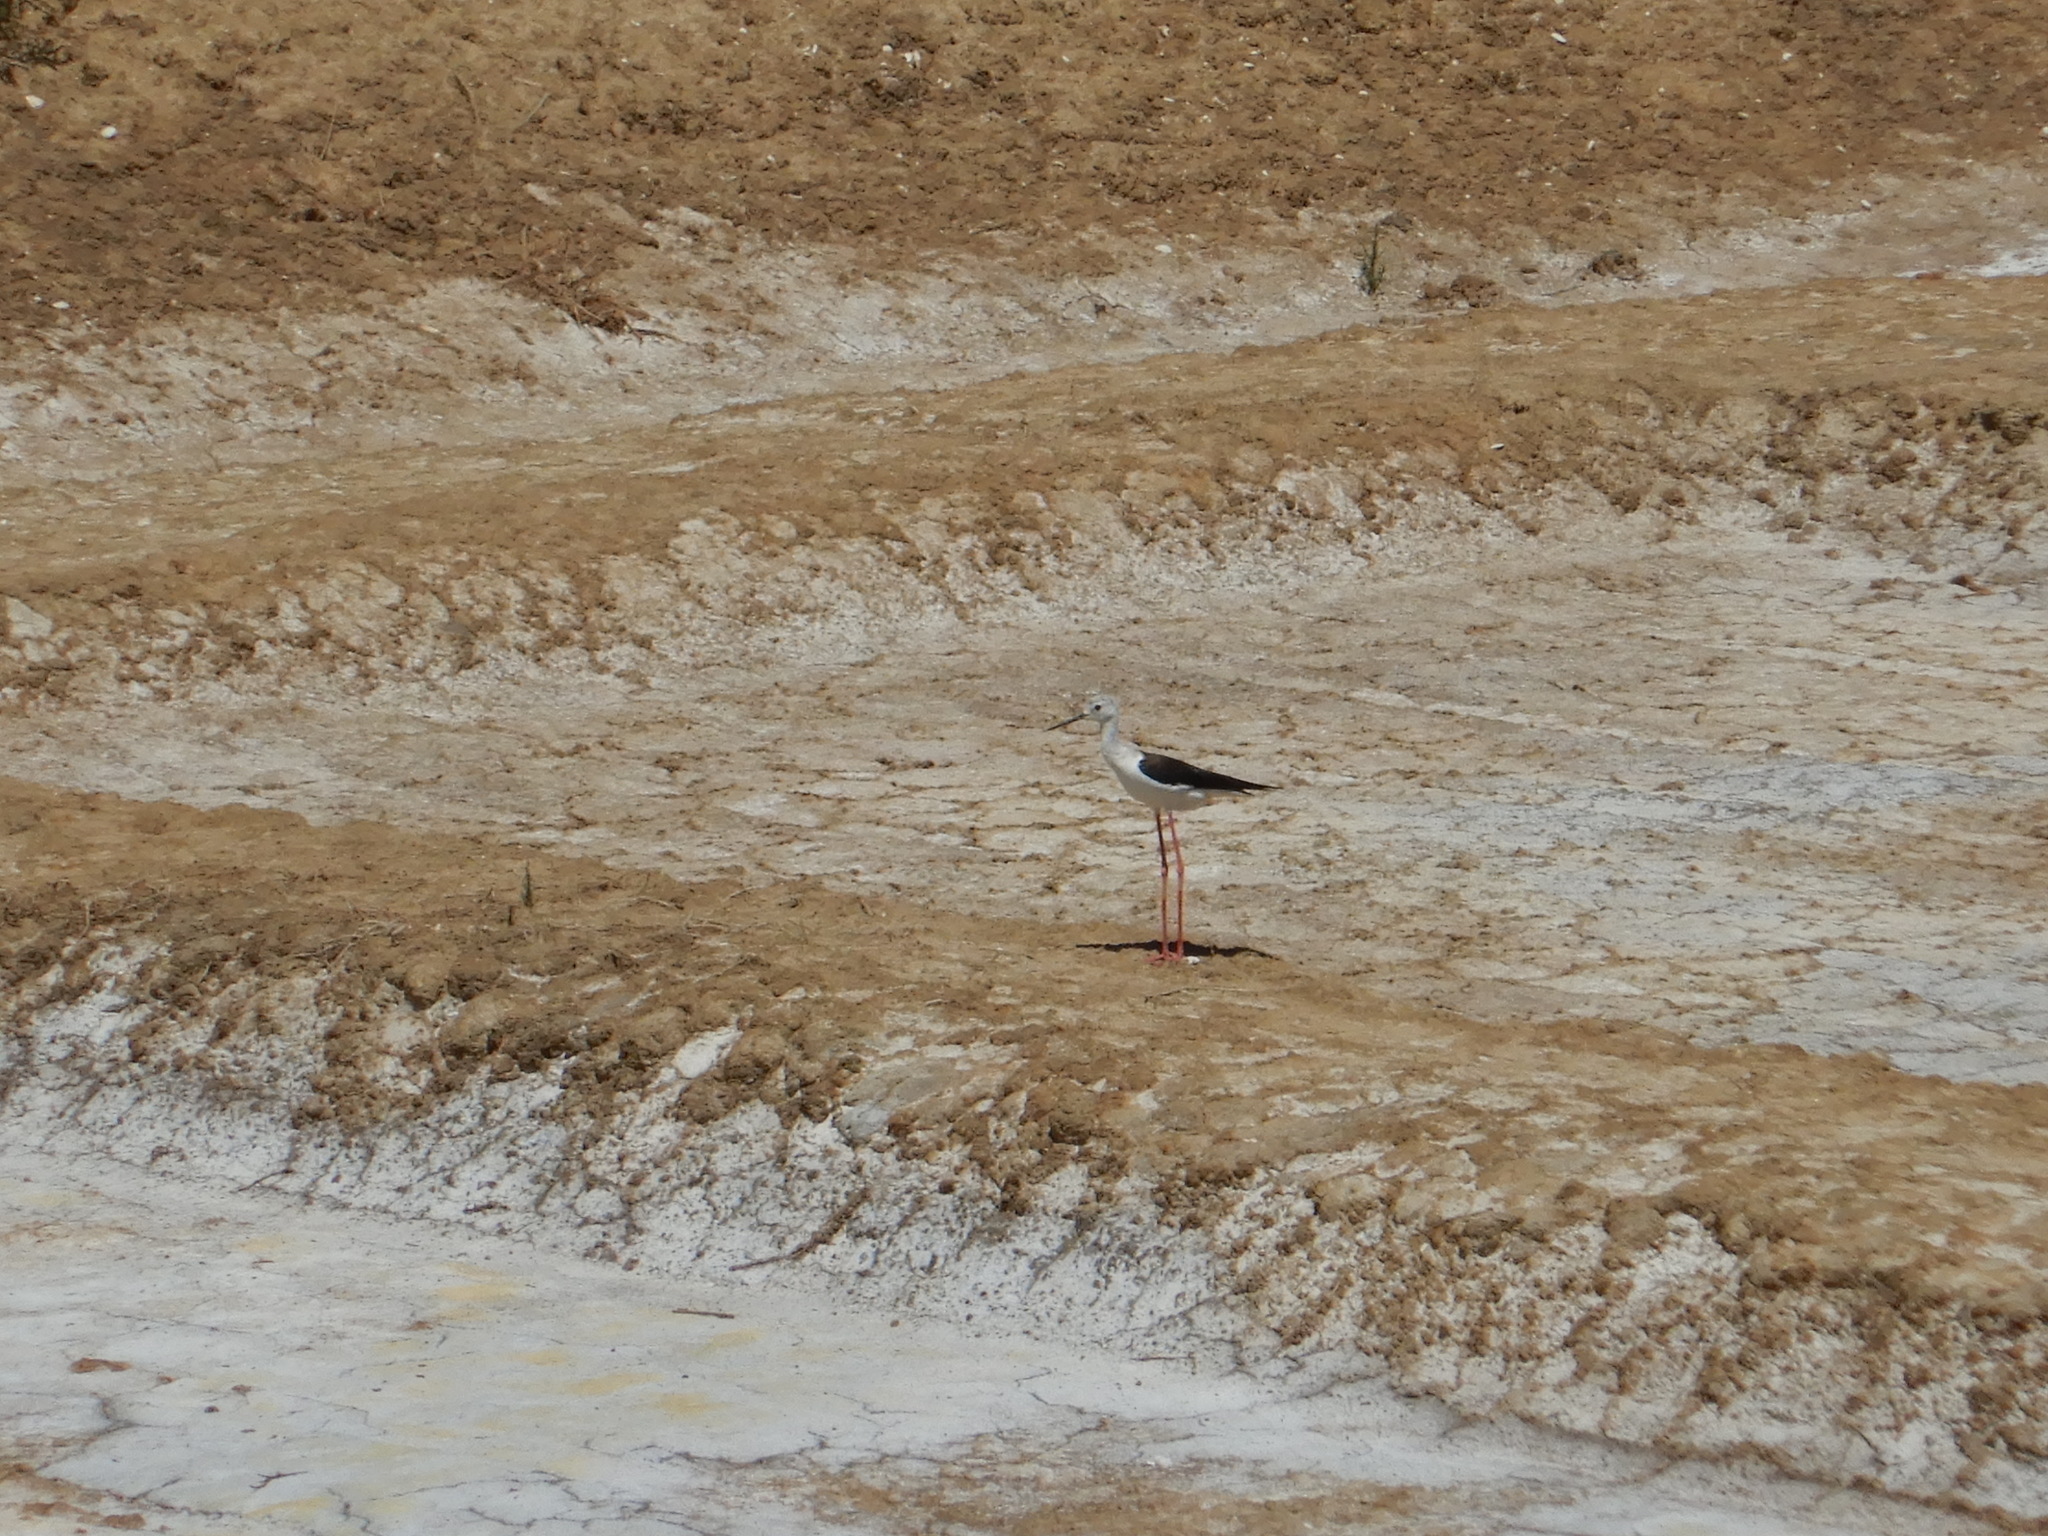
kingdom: Animalia
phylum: Chordata
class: Aves
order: Charadriiformes
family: Recurvirostridae
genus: Himantopus
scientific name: Himantopus himantopus
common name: Black-winged stilt
